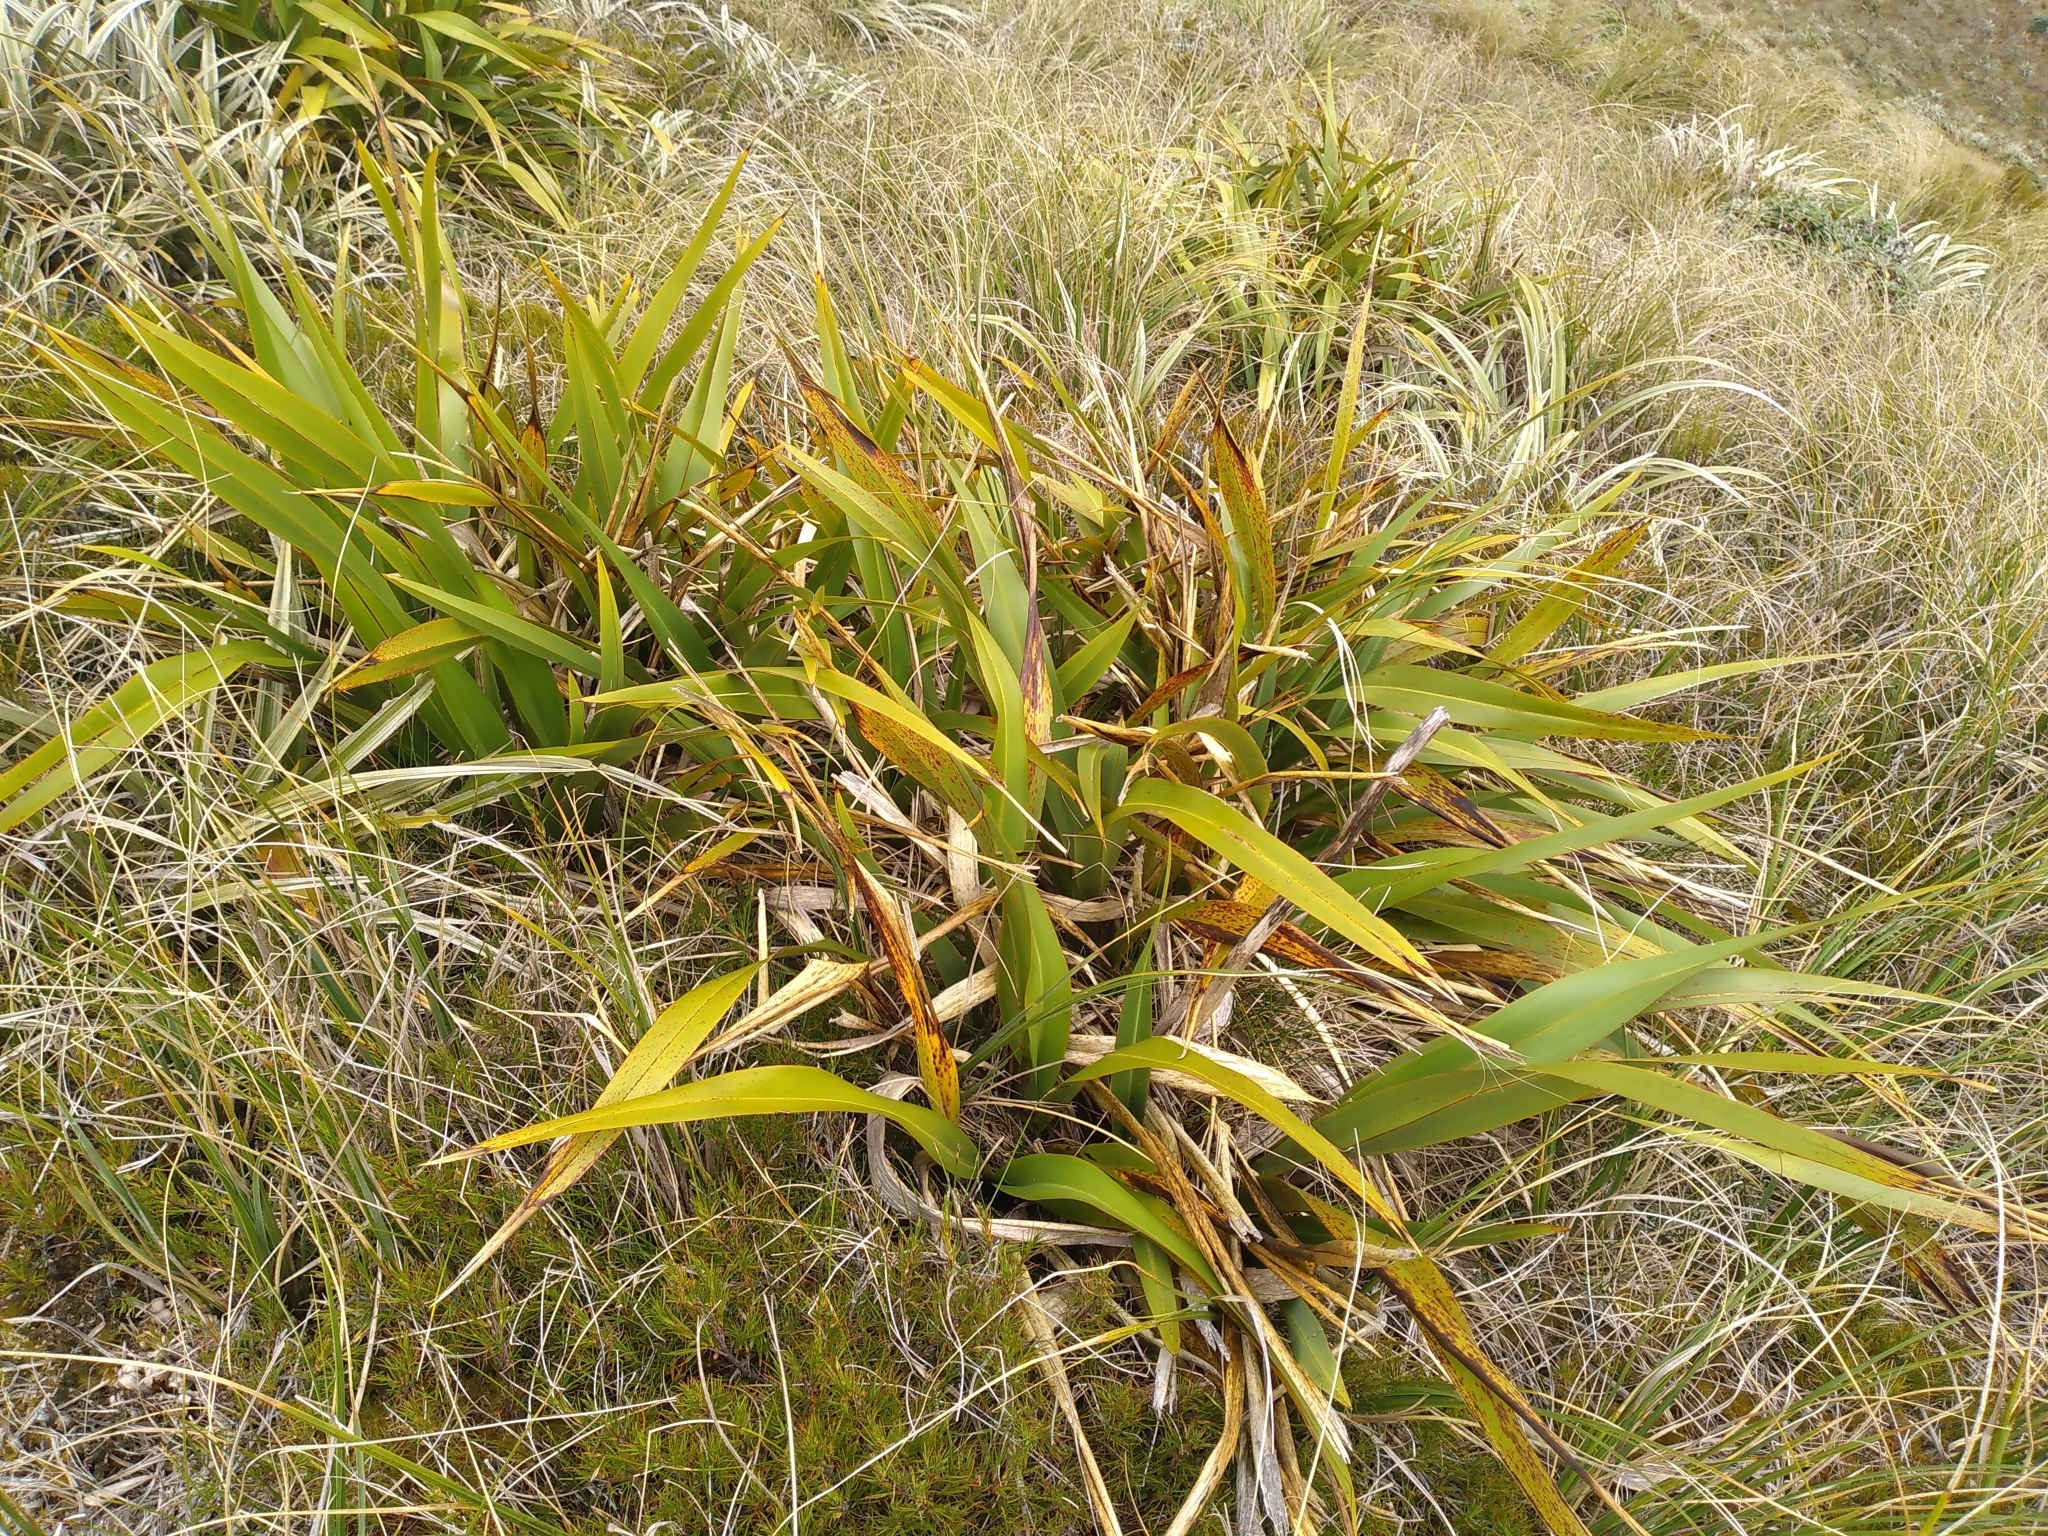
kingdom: Plantae
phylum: Tracheophyta
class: Liliopsida
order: Asparagales
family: Asphodelaceae
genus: Phormium
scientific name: Phormium colensoi
